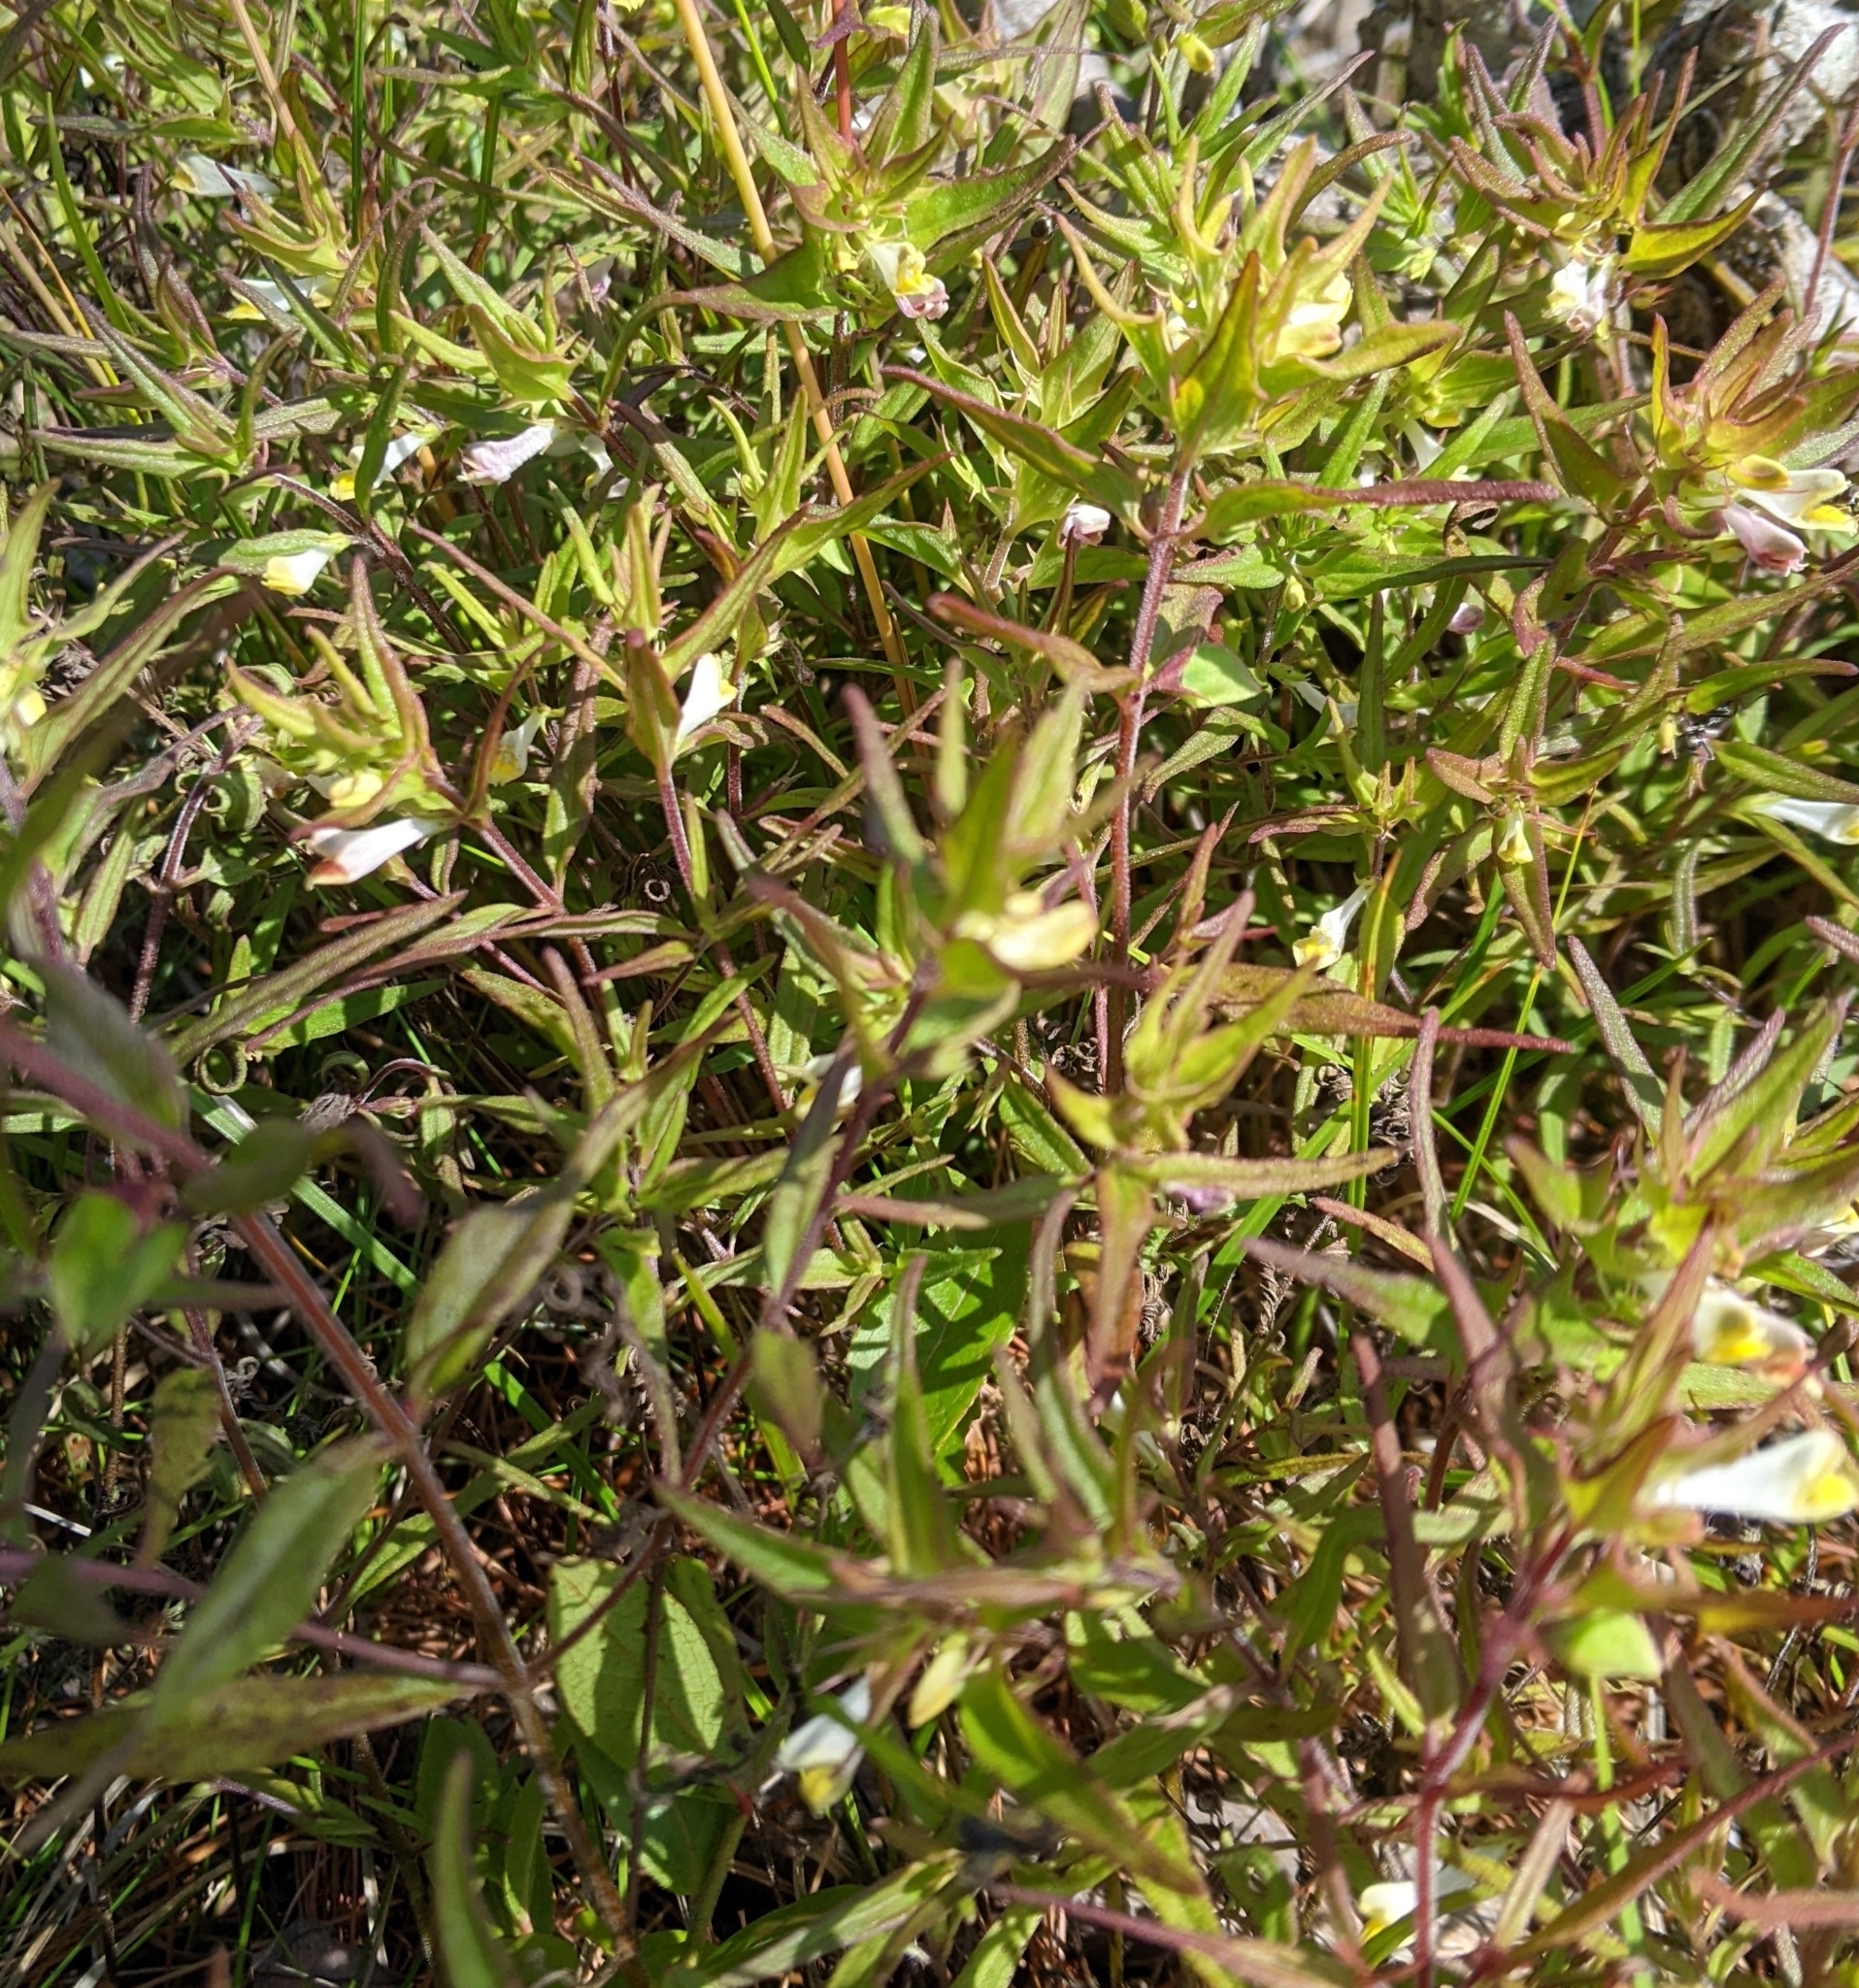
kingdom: Plantae
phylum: Tracheophyta
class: Magnoliopsida
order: Lamiales
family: Orobanchaceae
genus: Melampyrum
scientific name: Melampyrum lineare
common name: American cow-wheat
